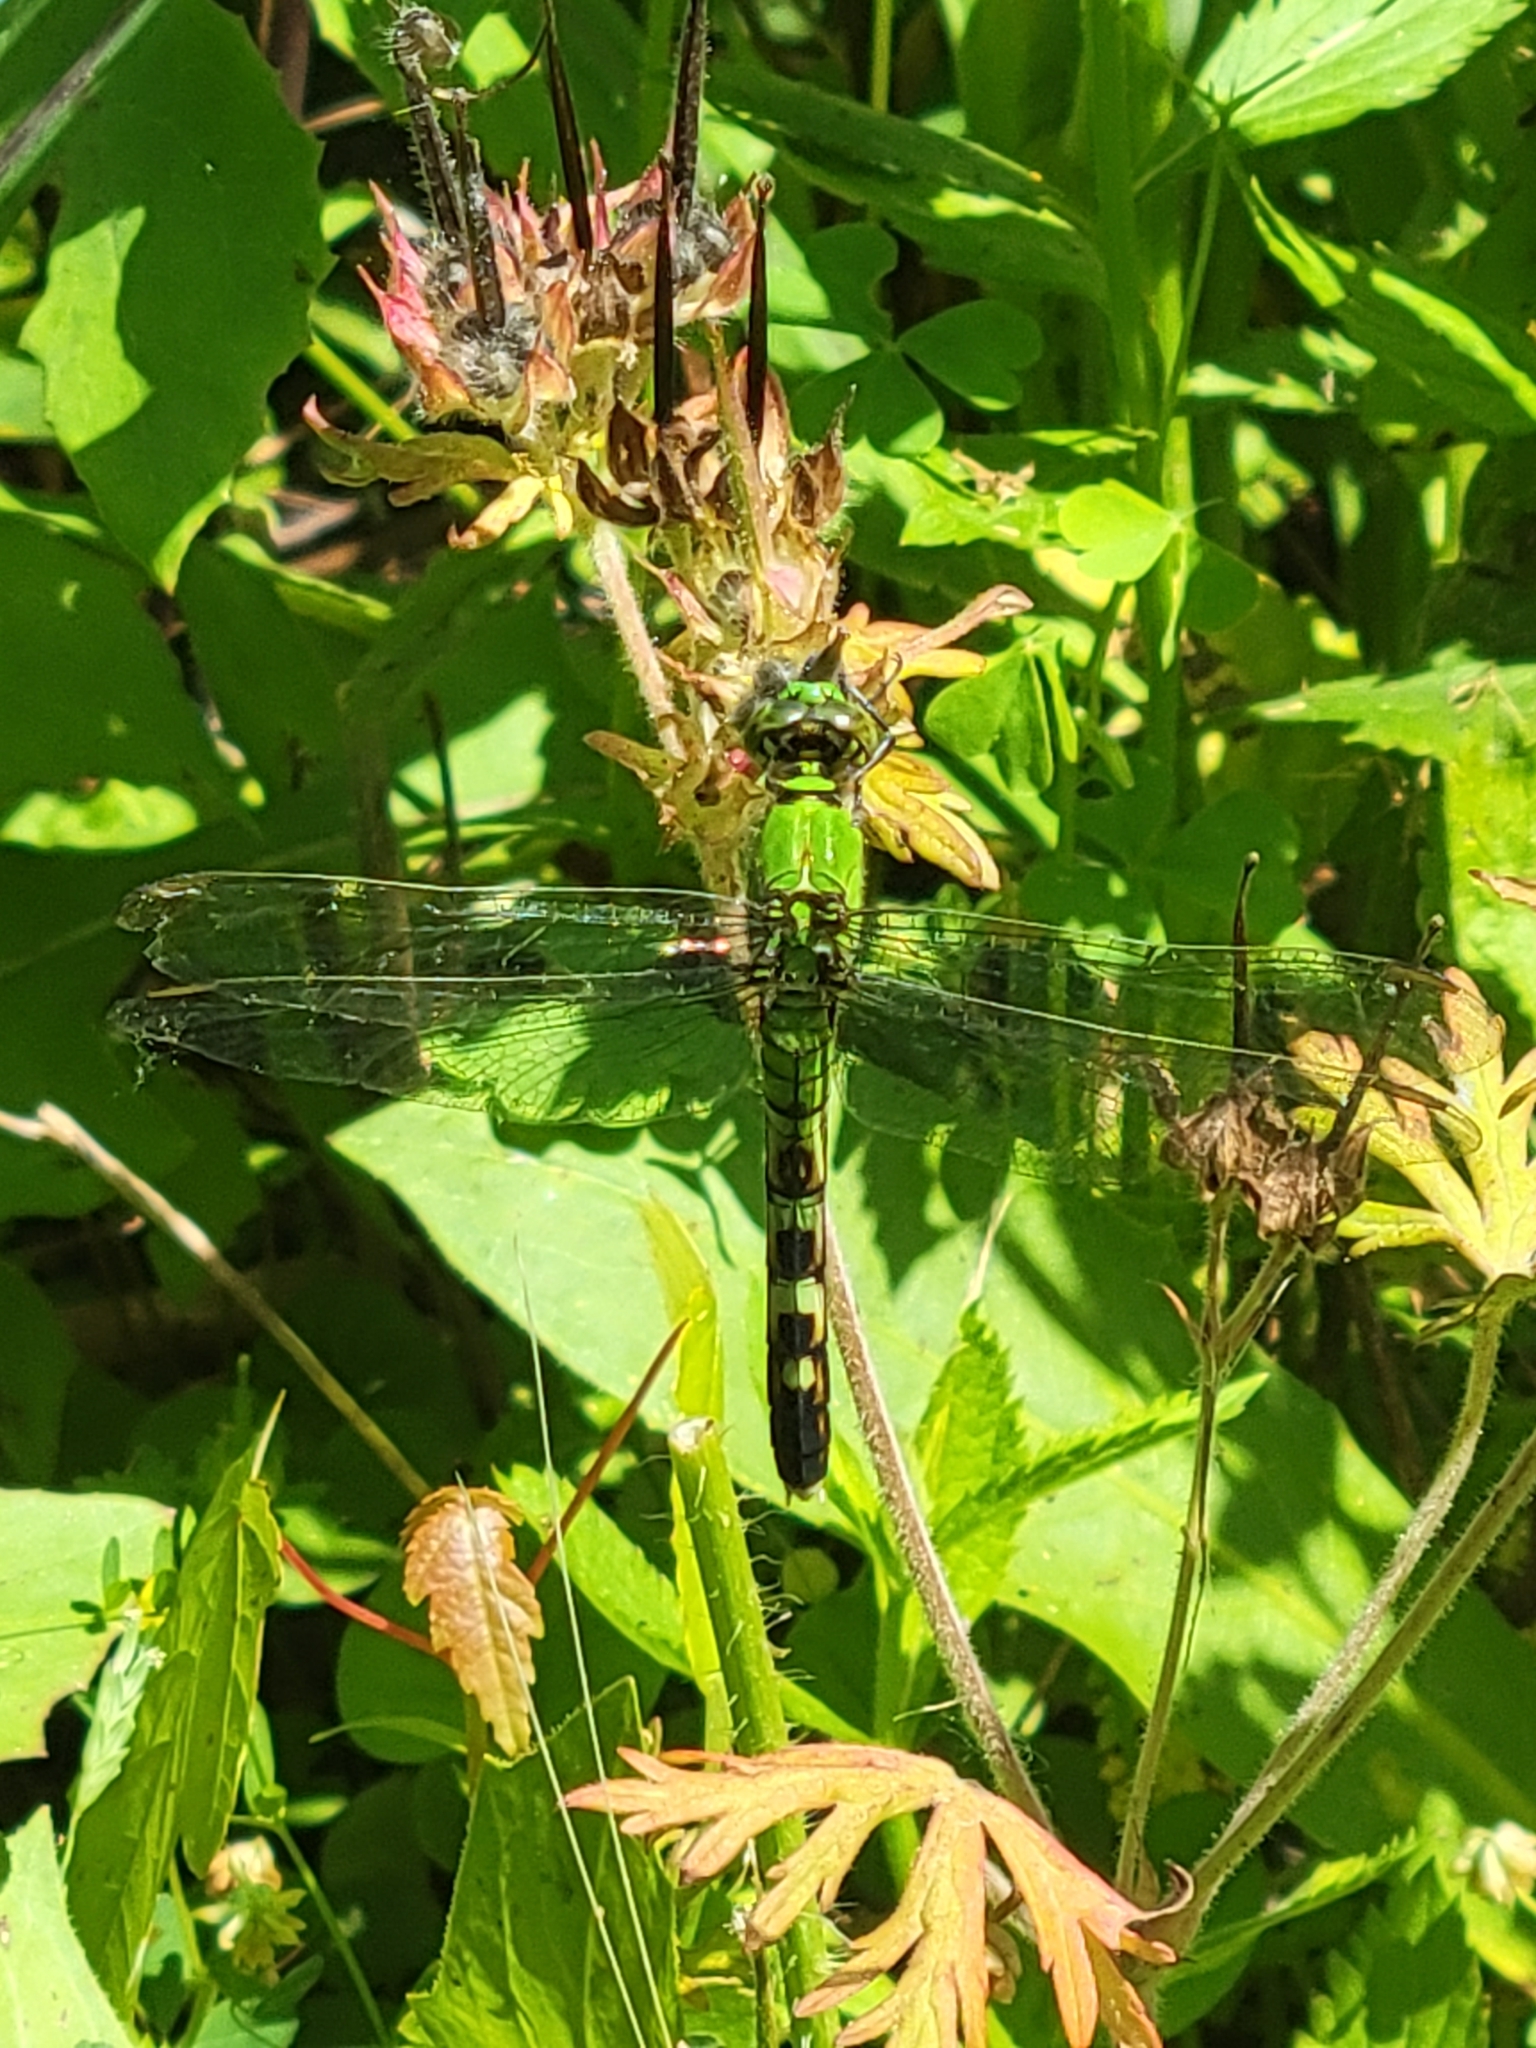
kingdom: Animalia
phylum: Arthropoda
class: Insecta
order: Odonata
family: Libellulidae
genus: Erythemis
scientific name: Erythemis simplicicollis
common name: Eastern pondhawk
